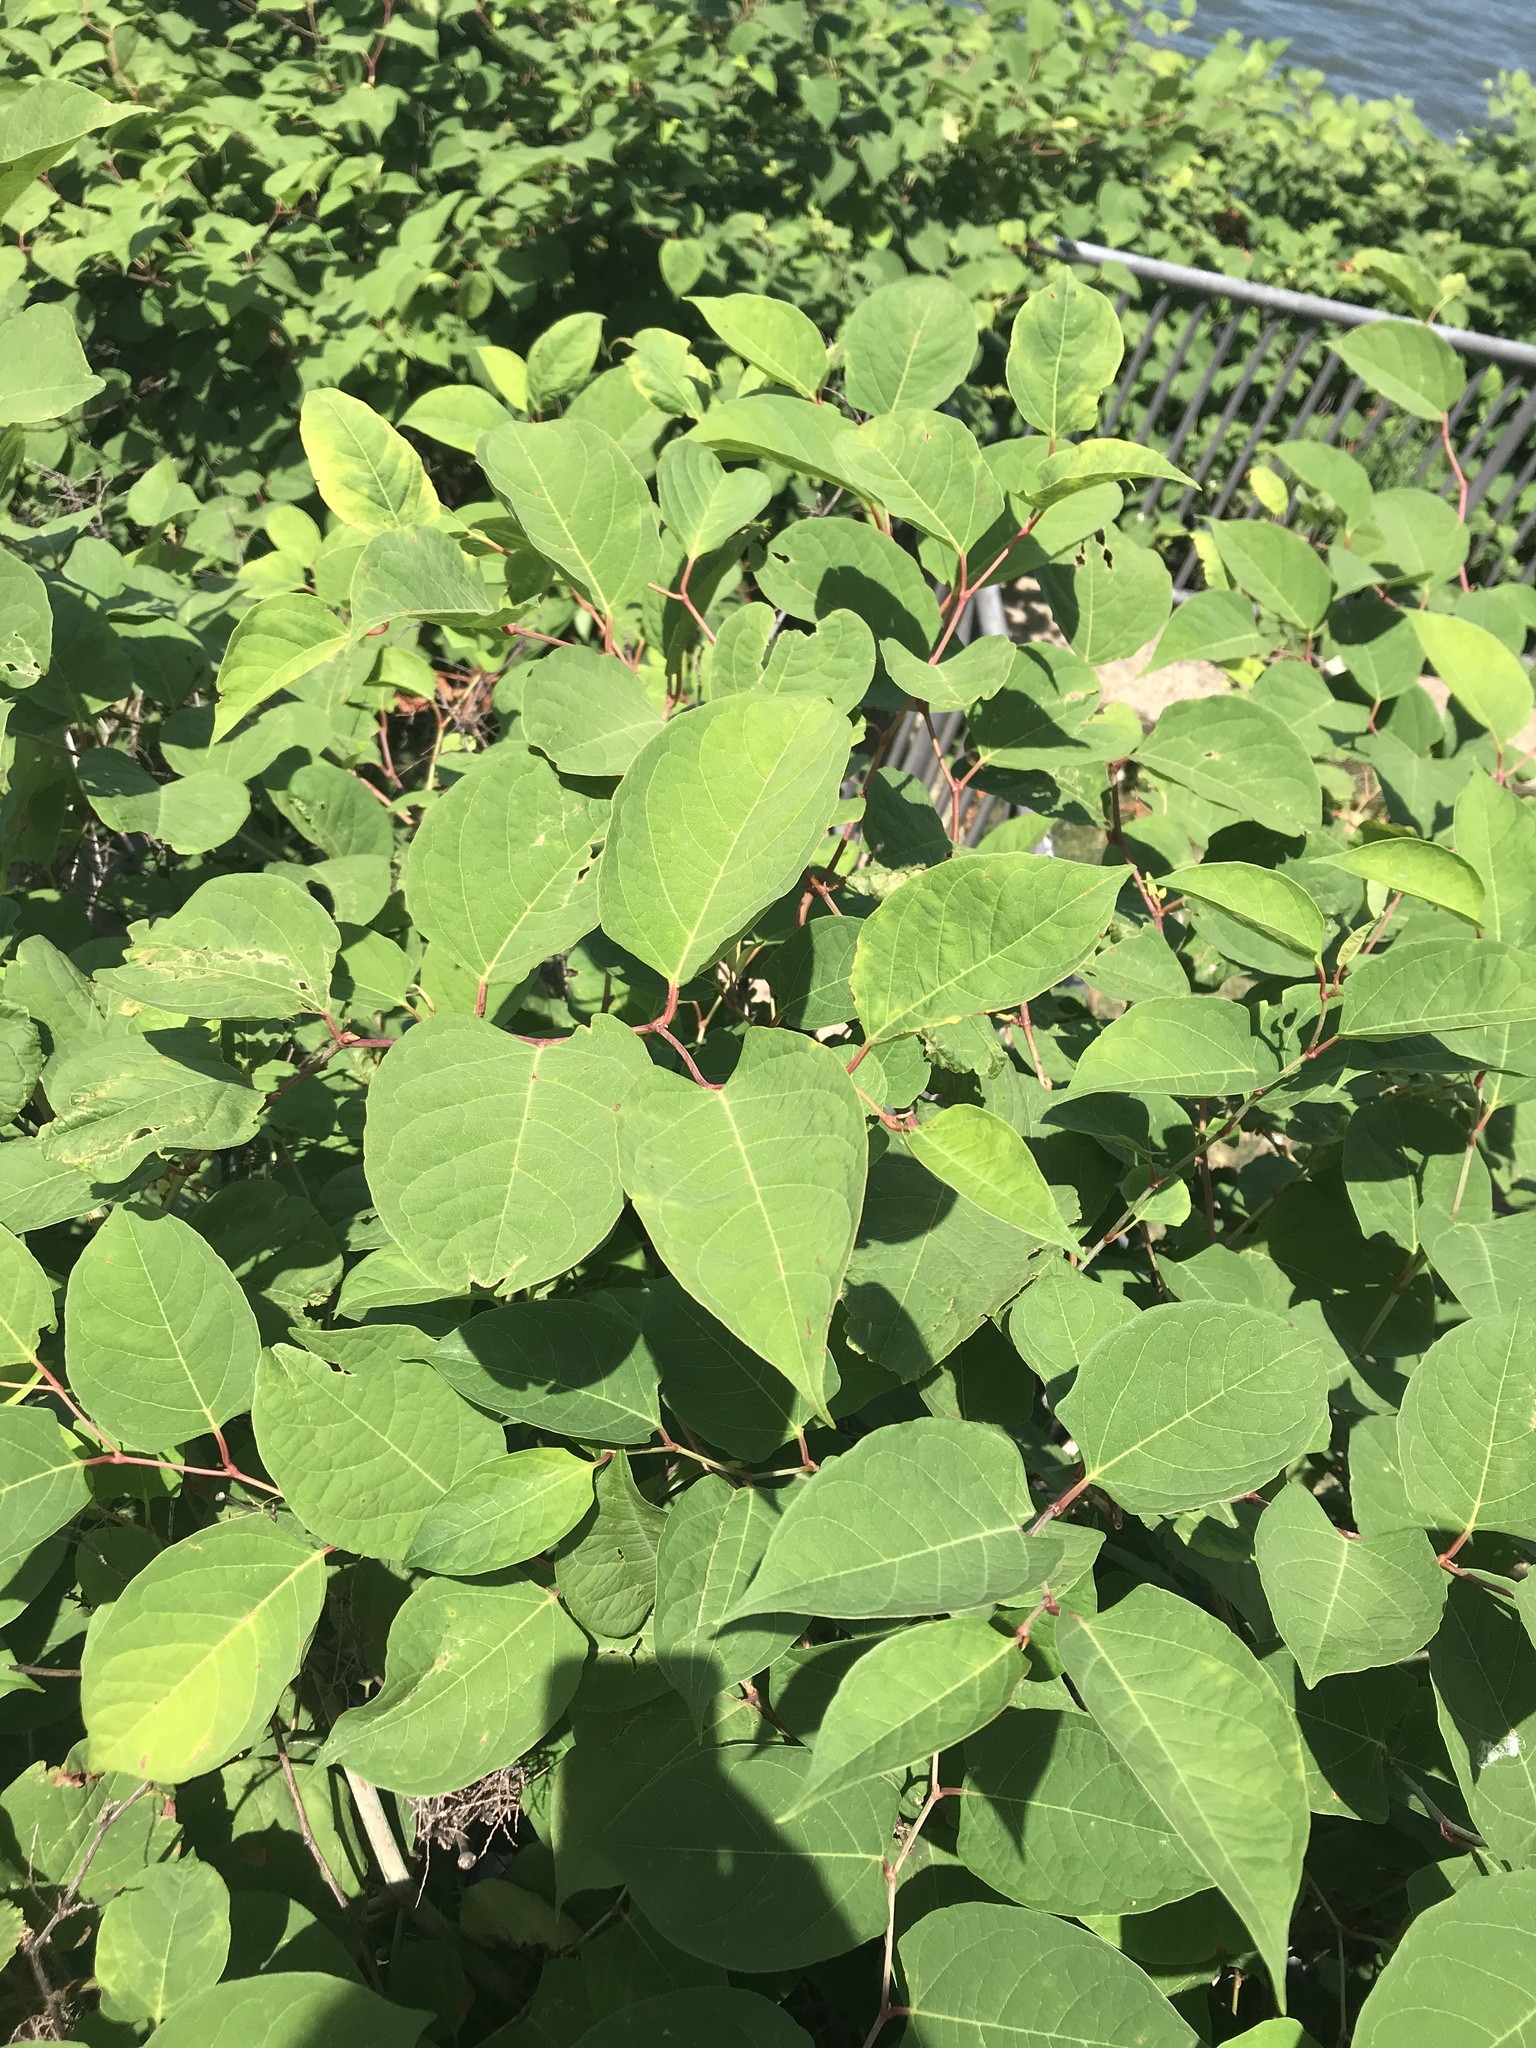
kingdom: Plantae
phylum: Tracheophyta
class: Magnoliopsida
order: Caryophyllales
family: Polygonaceae
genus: Reynoutria
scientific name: Reynoutria japonica
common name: Japanese knotweed
